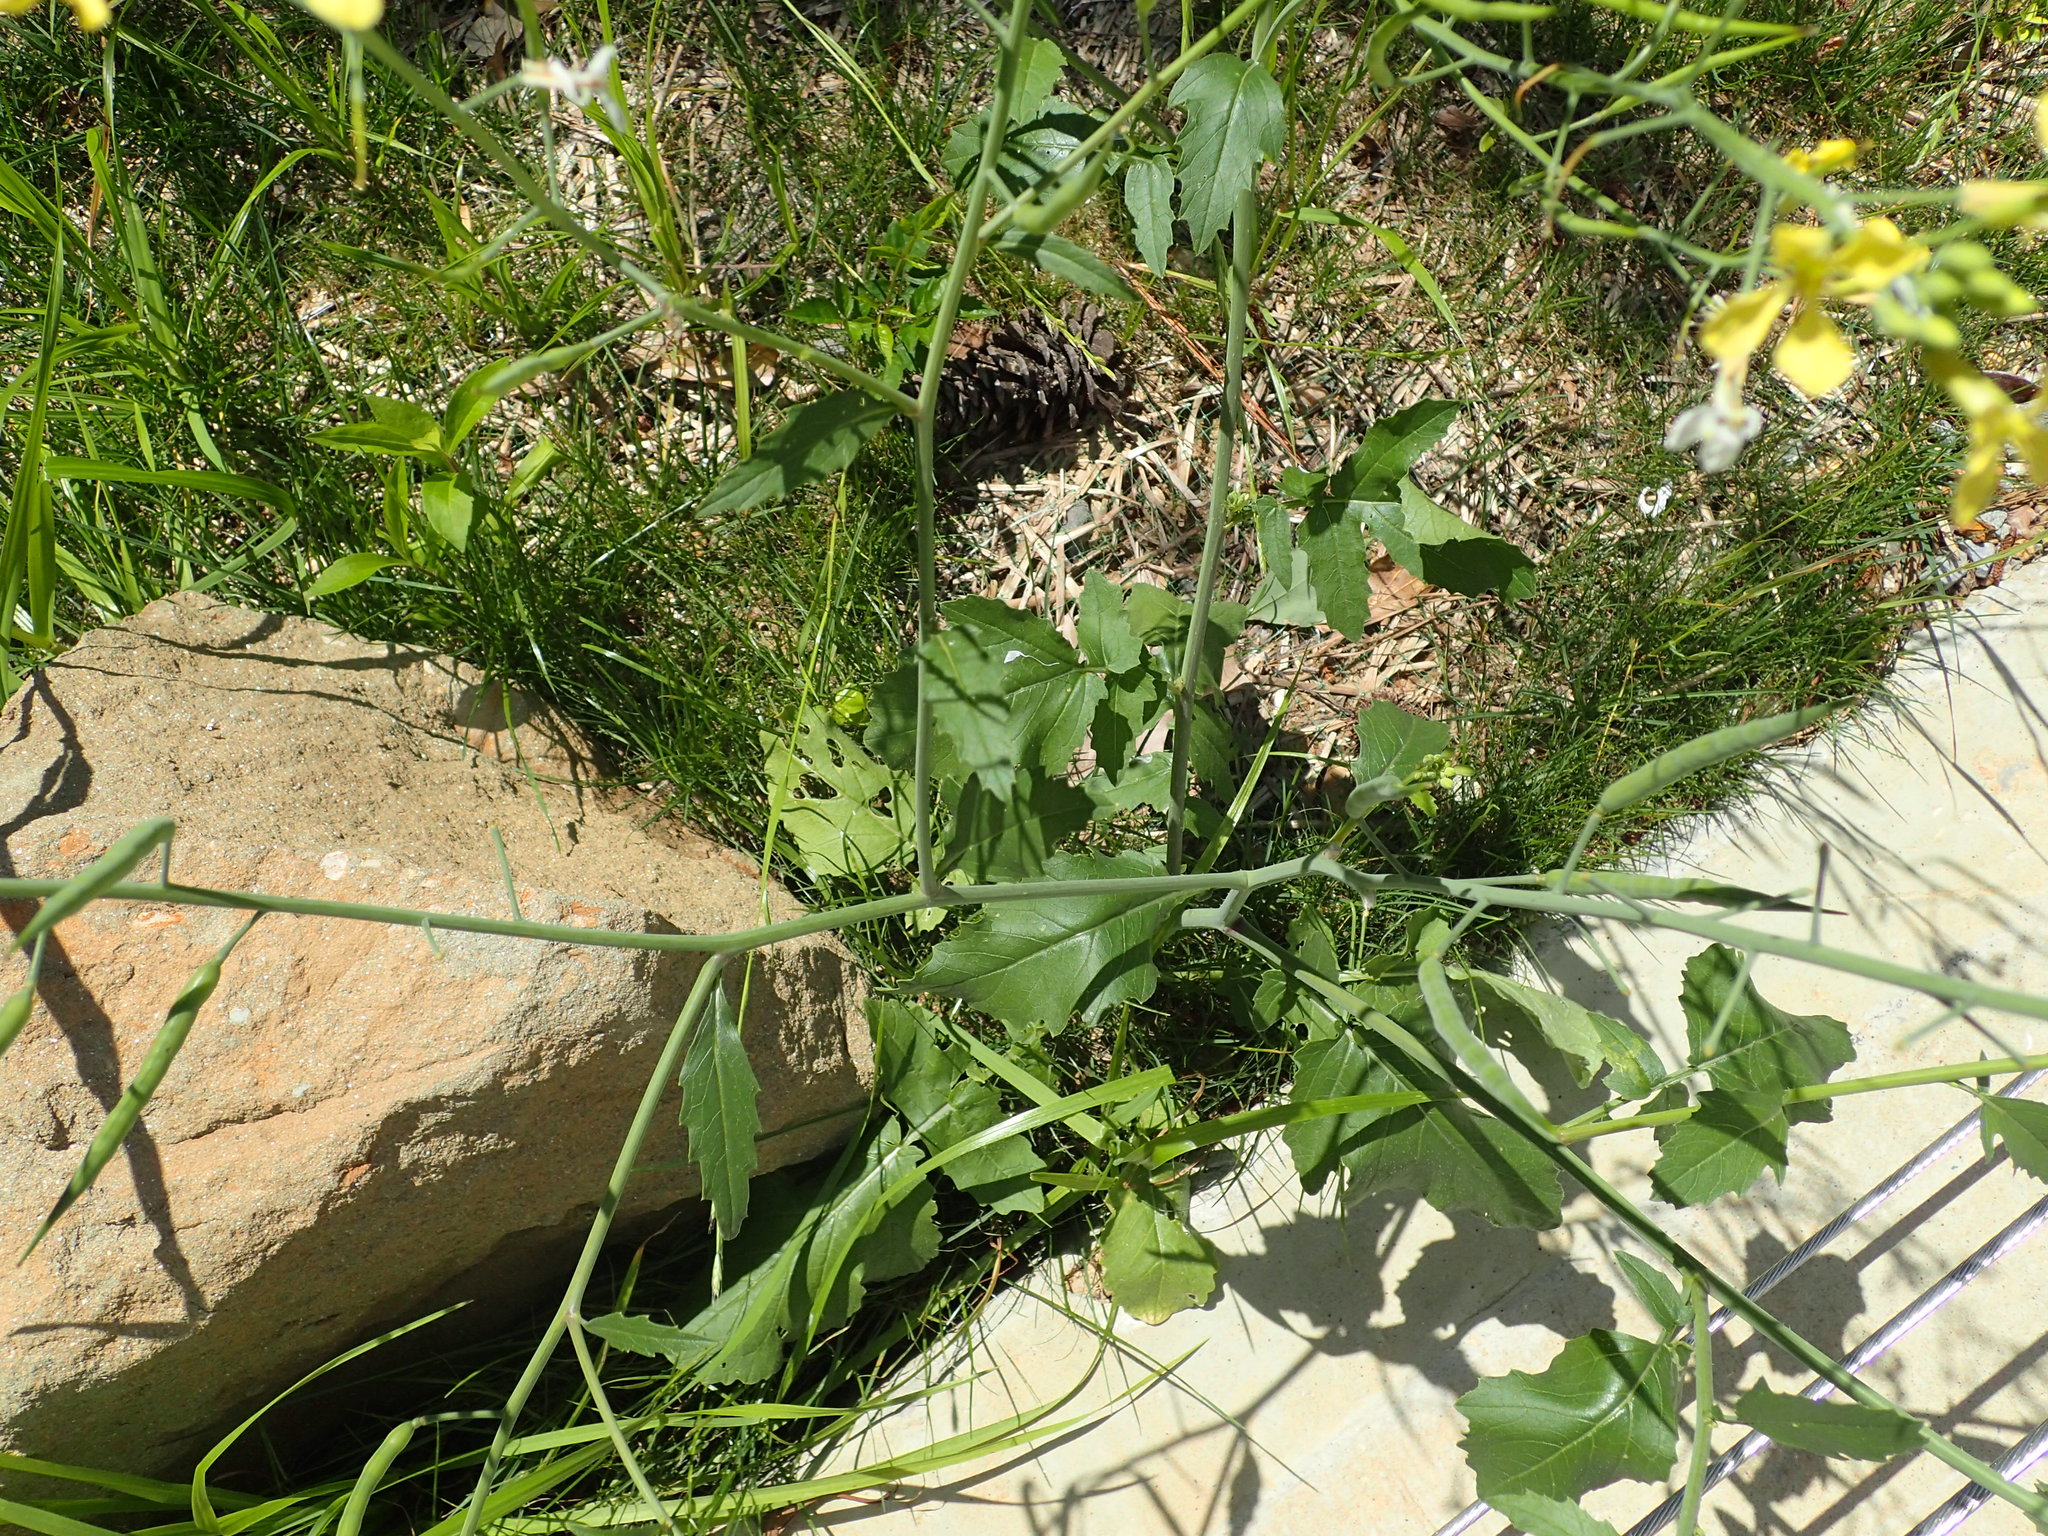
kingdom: Plantae
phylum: Tracheophyta
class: Magnoliopsida
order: Brassicales
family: Brassicaceae
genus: Raphanus
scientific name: Raphanus raphanistrum
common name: Wild radish
